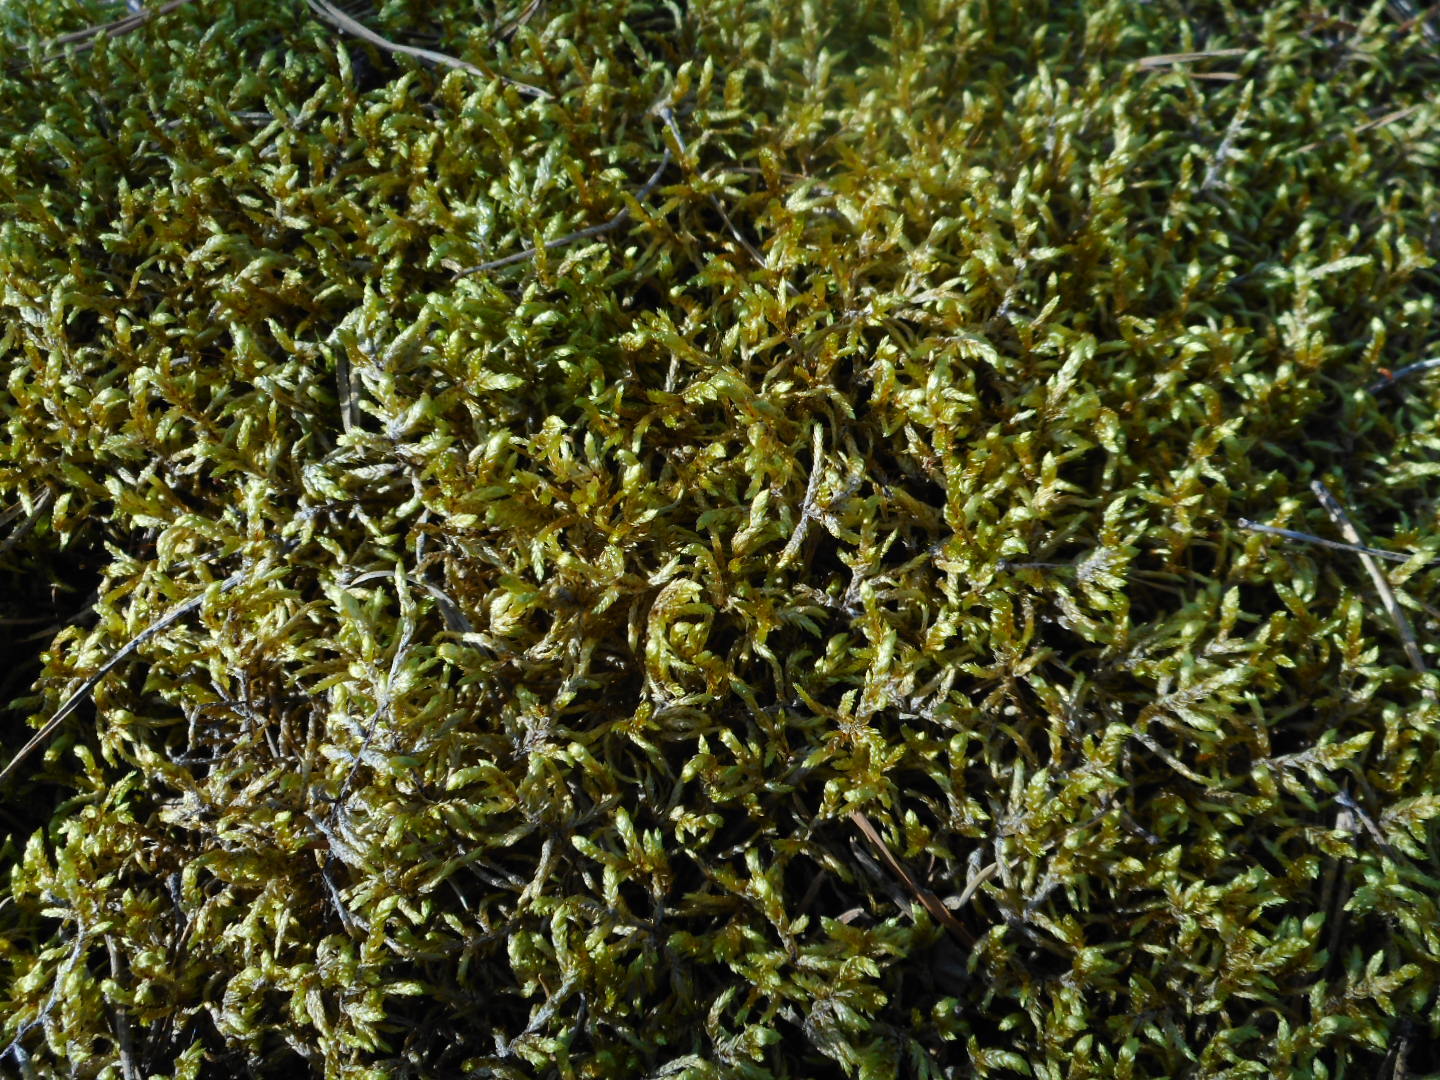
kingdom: Plantae
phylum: Bryophyta
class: Bryopsida
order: Hypnales
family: Hylocomiaceae
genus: Pleurozium
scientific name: Pleurozium schreberi
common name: Red-stemmed feather moss
